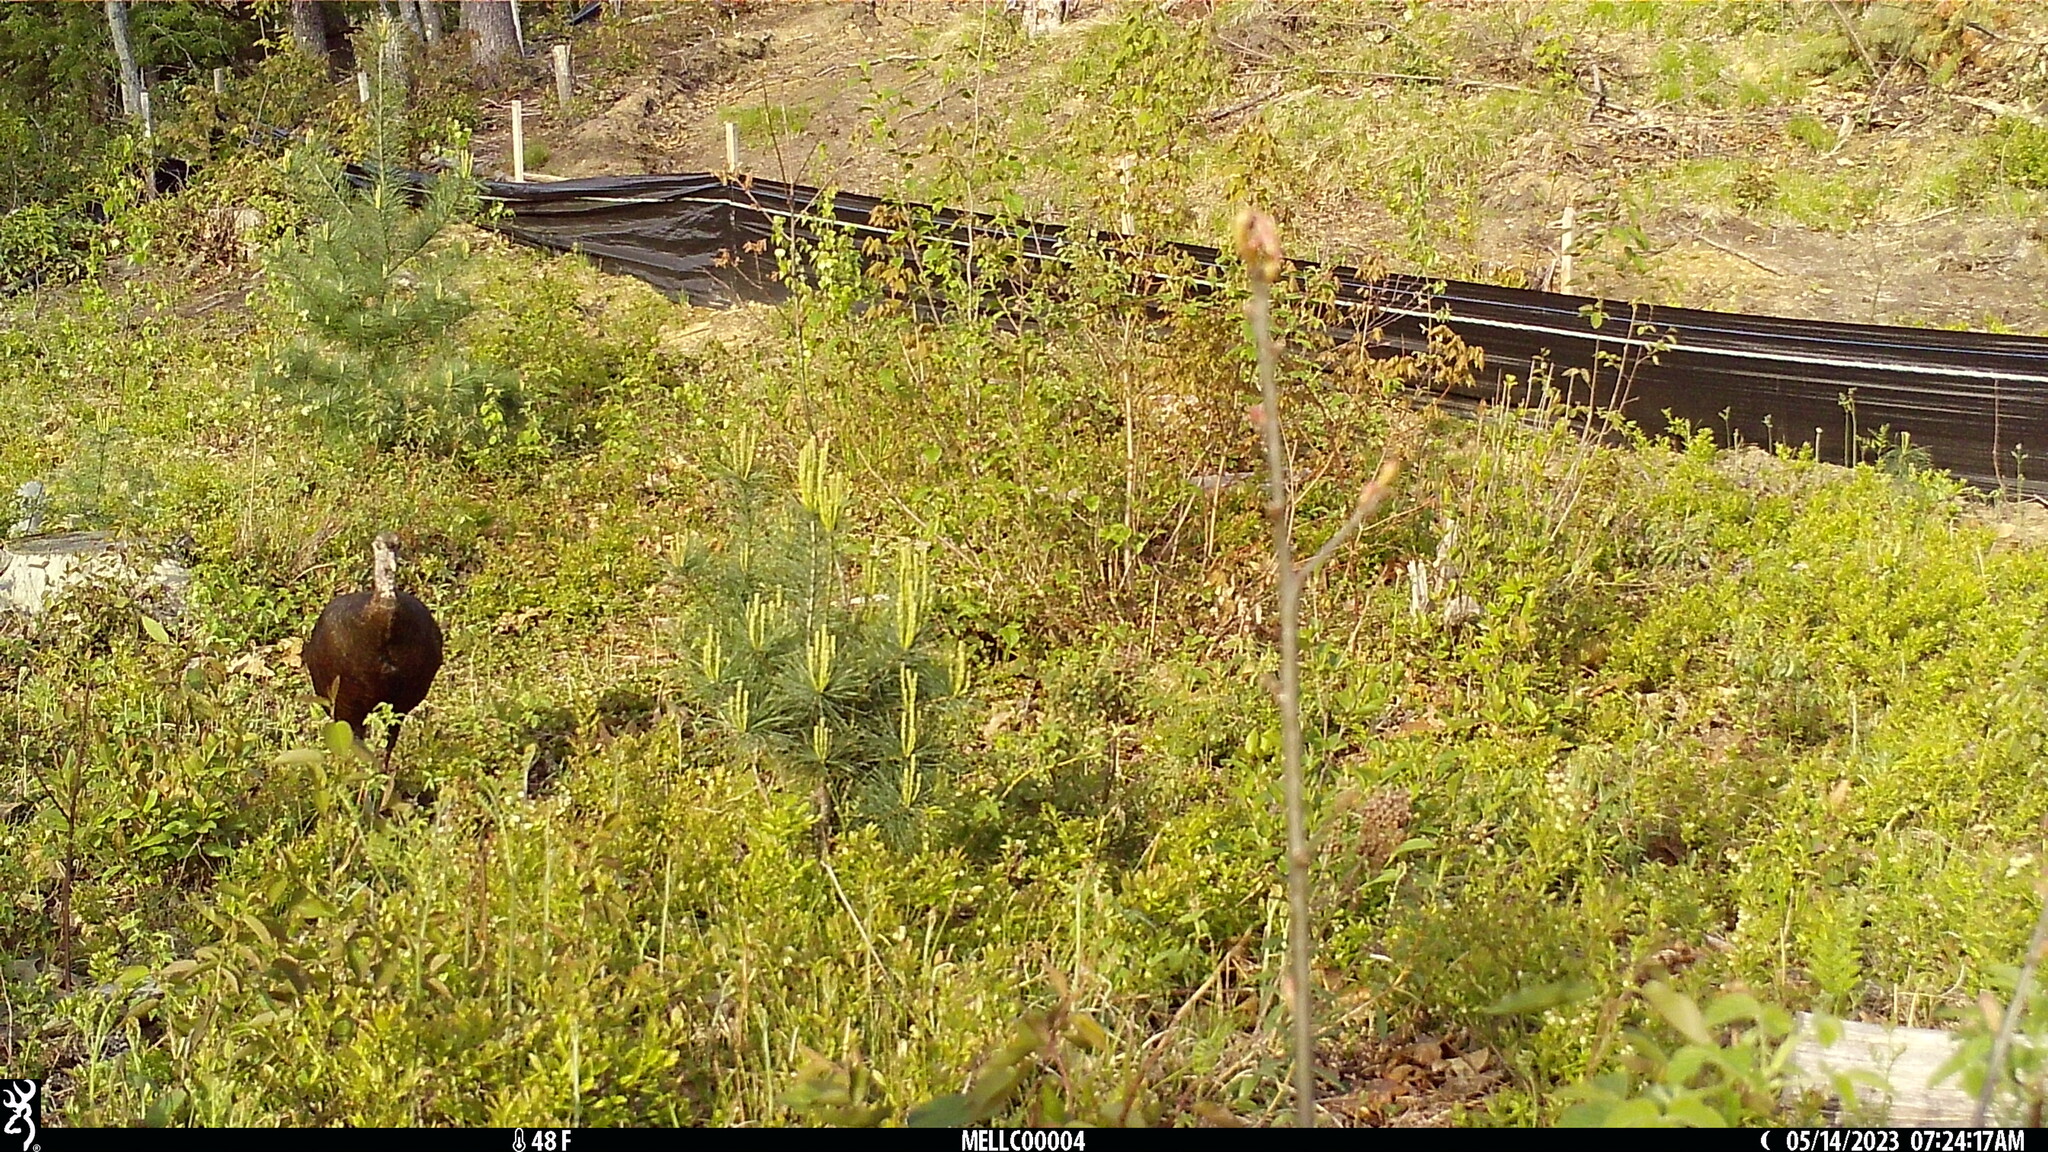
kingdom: Animalia
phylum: Chordata
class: Aves
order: Galliformes
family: Phasianidae
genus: Meleagris
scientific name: Meleagris gallopavo
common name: Wild turkey
